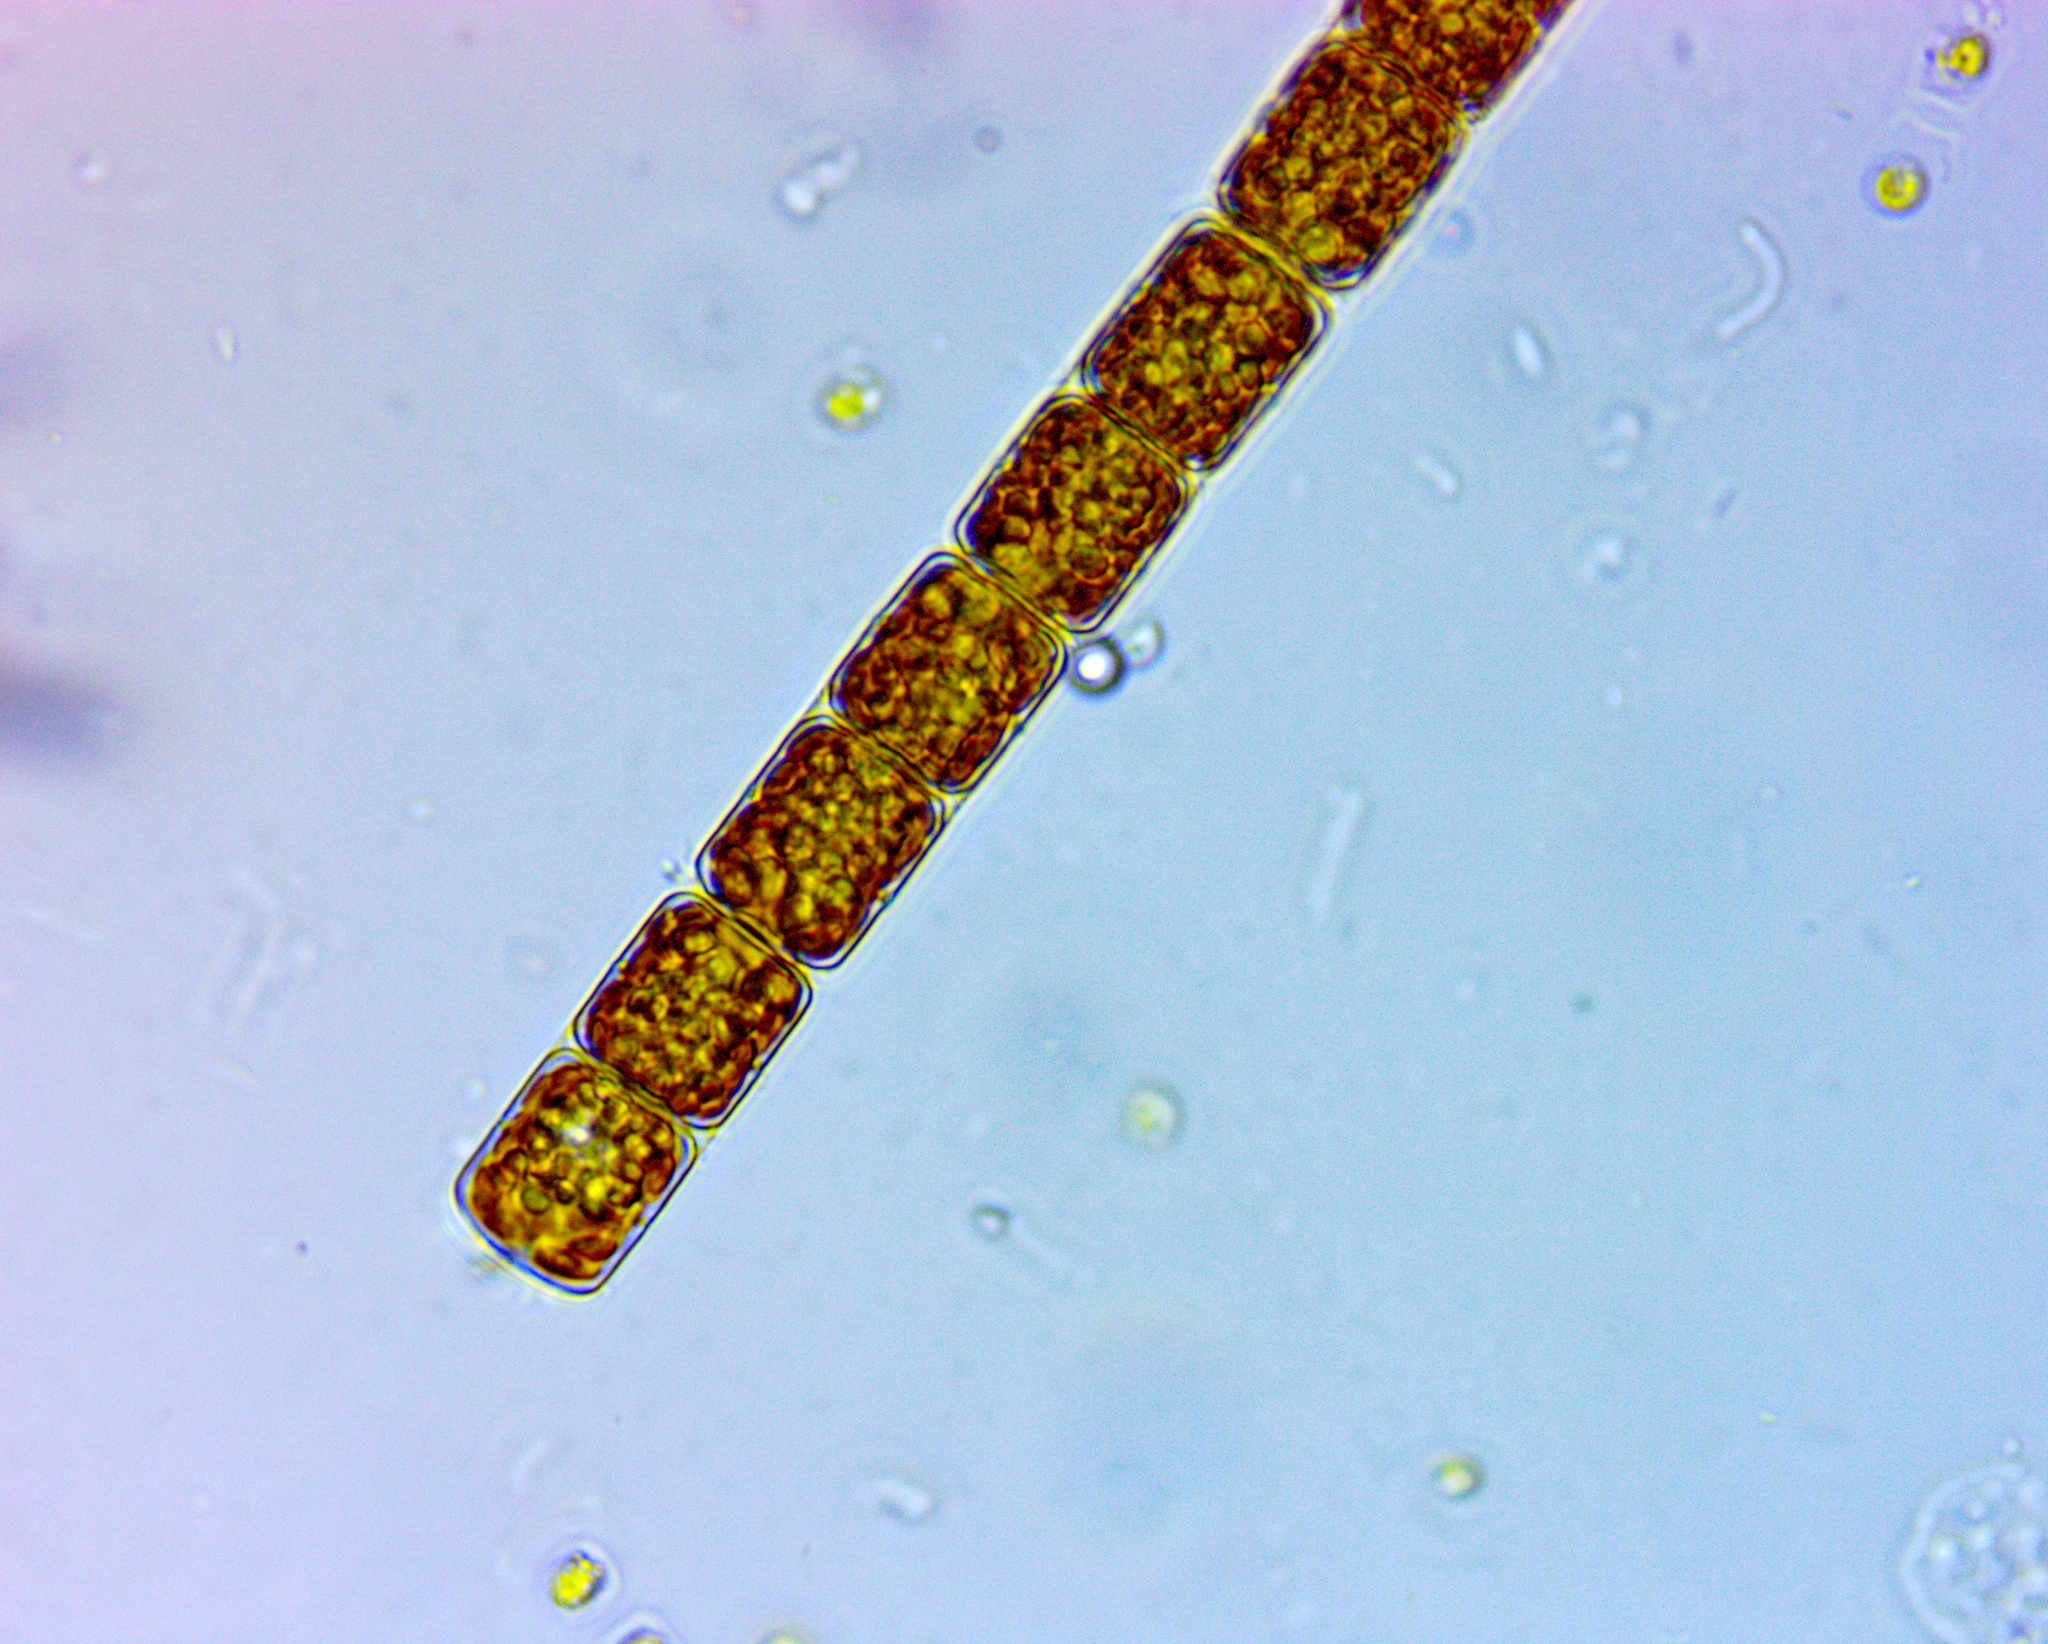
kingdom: Chromista
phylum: Ochrophyta
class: Bacillariophyceae
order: Melosirales
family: Melosiraceae
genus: Melosira
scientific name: Melosira varians
